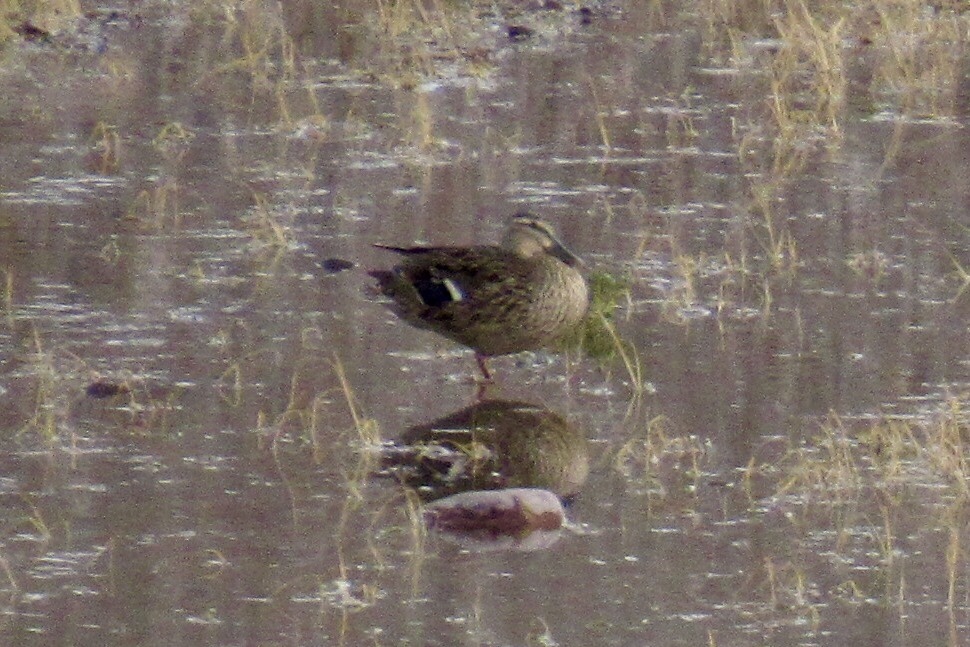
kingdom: Animalia
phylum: Chordata
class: Aves
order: Anseriformes
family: Anatidae
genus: Anas
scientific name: Anas platyrhynchos
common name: Mallard
